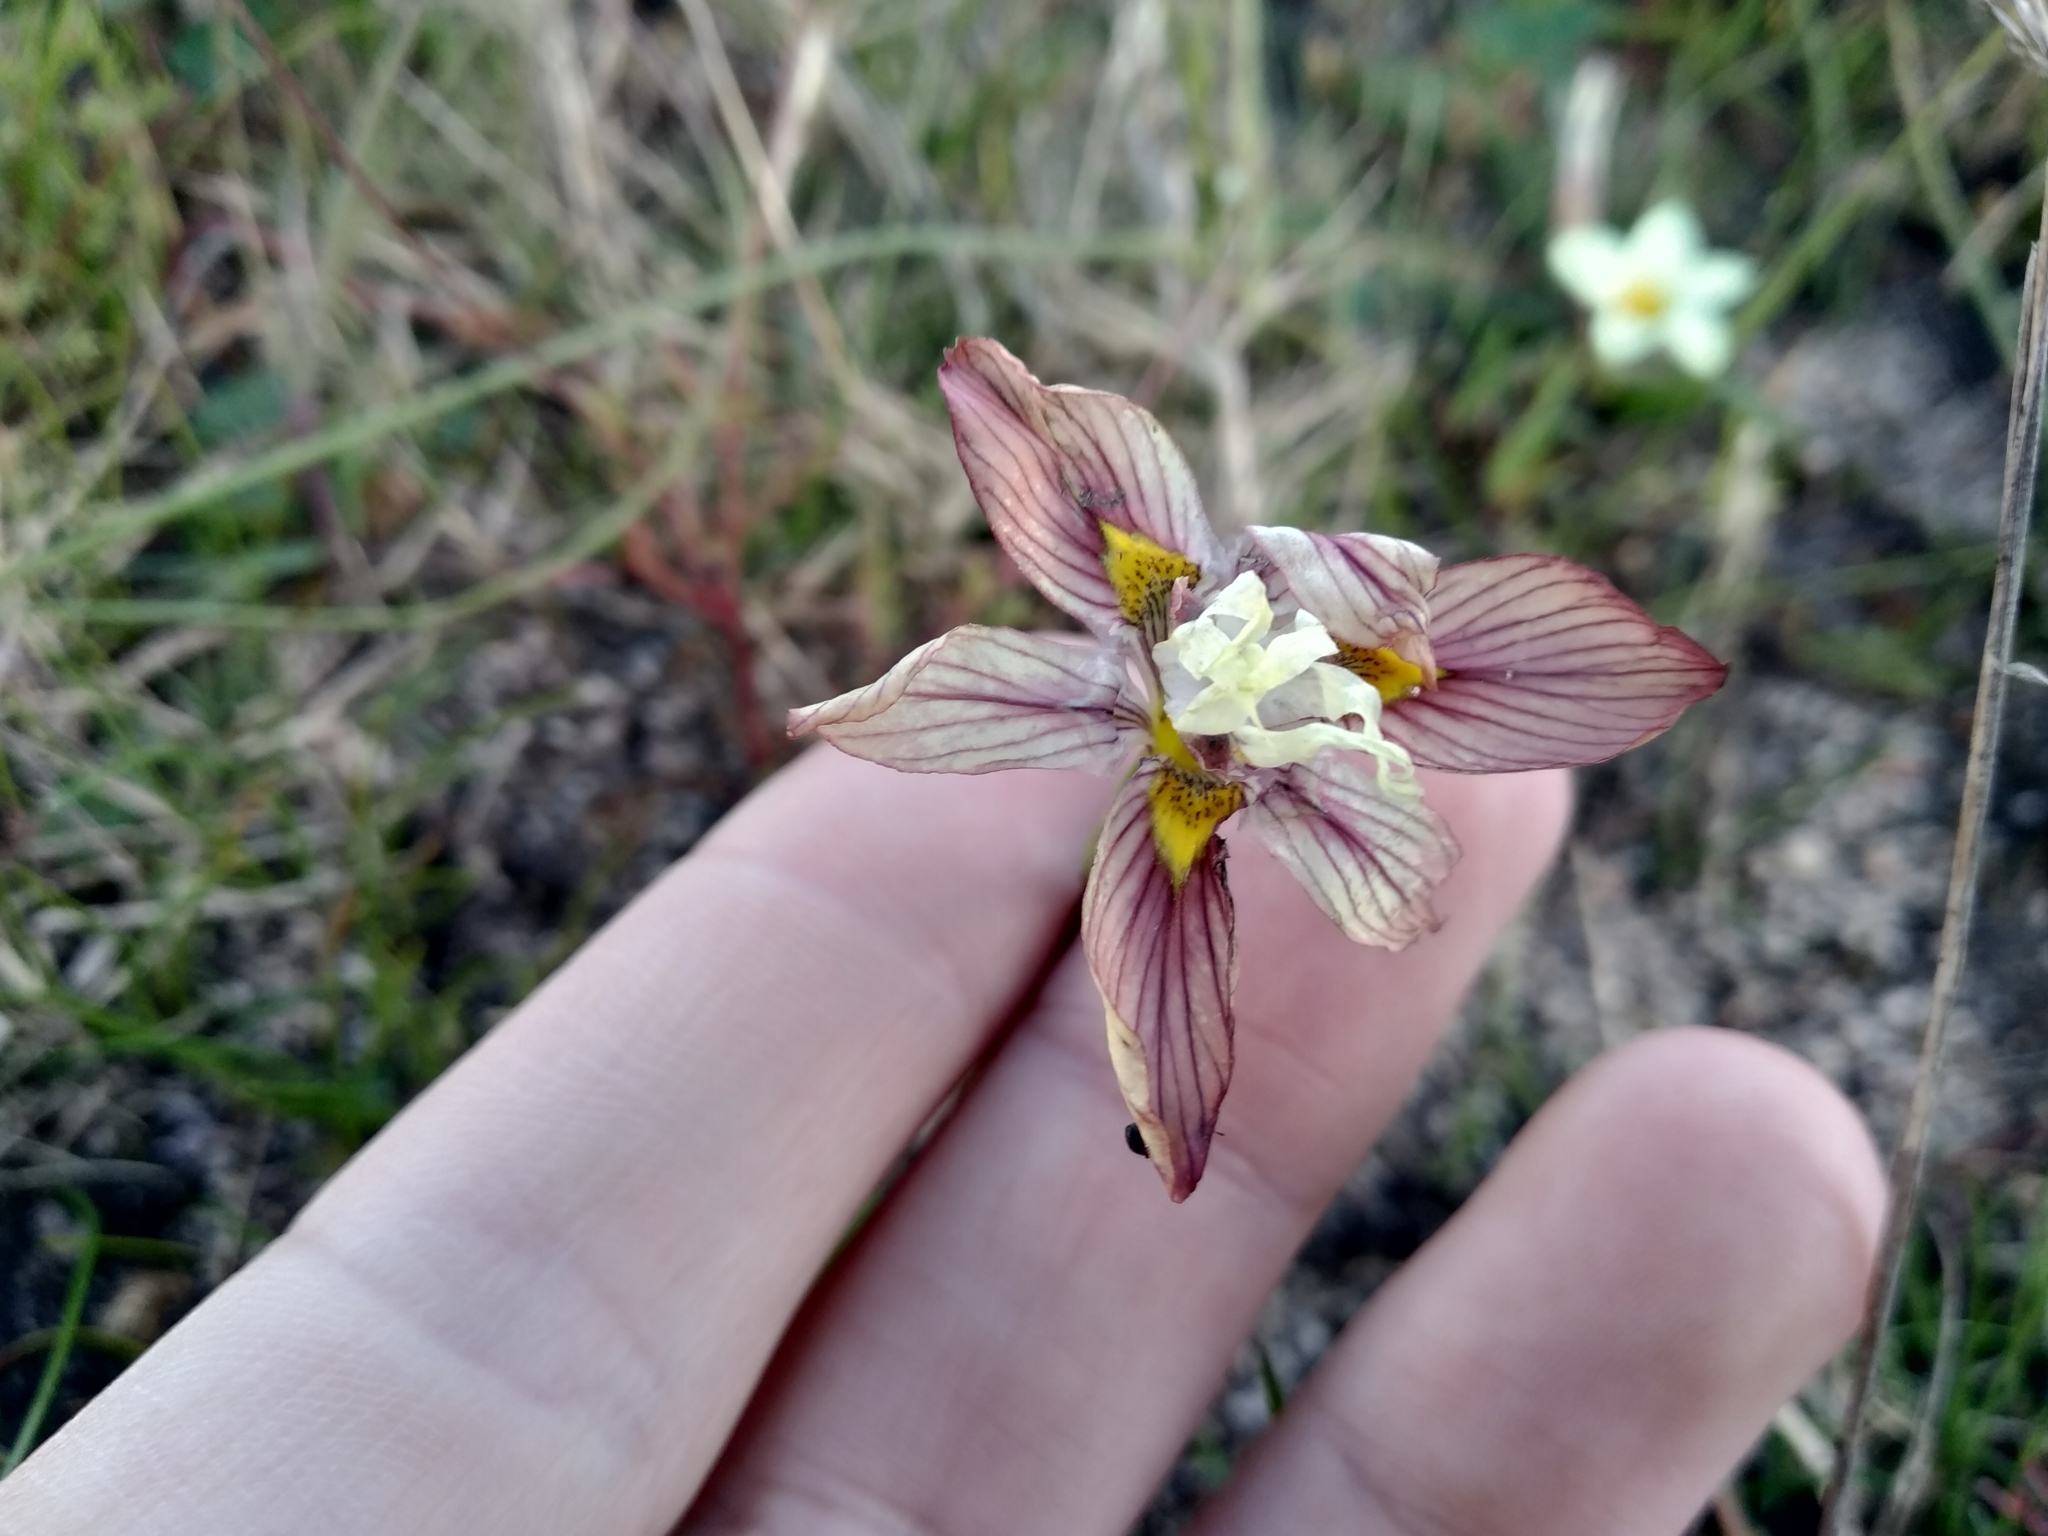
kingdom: Plantae
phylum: Tracheophyta
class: Liliopsida
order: Asparagales
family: Iridaceae
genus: Moraea
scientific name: Moraea gawleri
